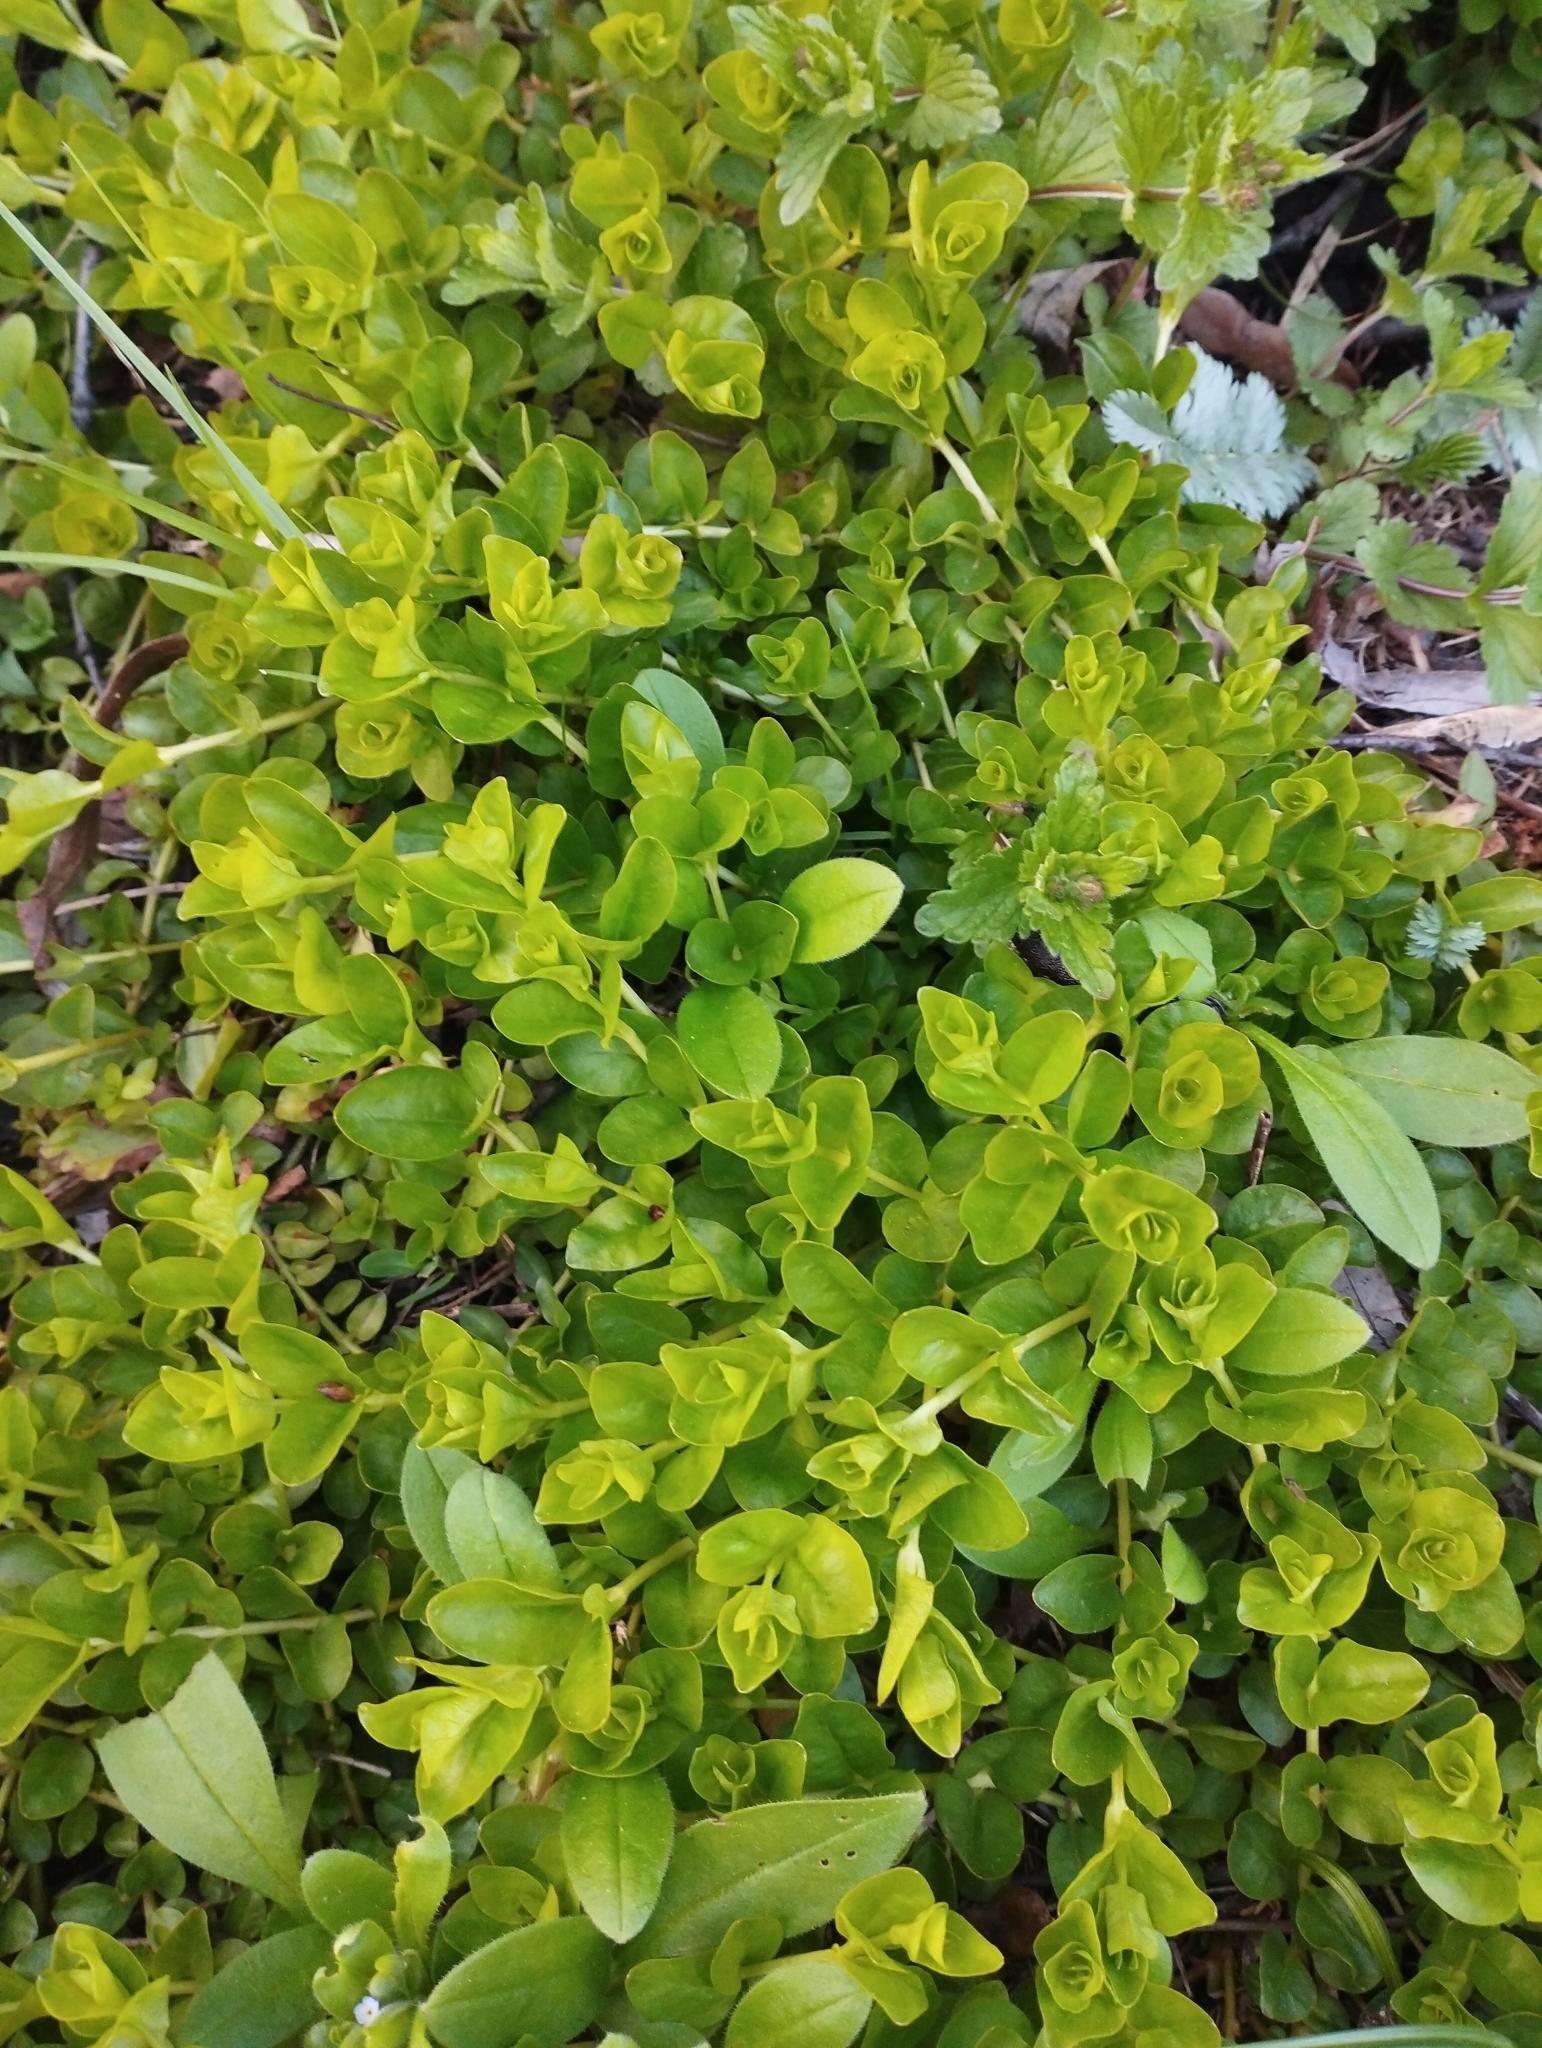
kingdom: Plantae
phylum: Tracheophyta
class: Magnoliopsida
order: Ericales
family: Primulaceae
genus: Lysimachia
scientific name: Lysimachia nummularia
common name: Moneywort
